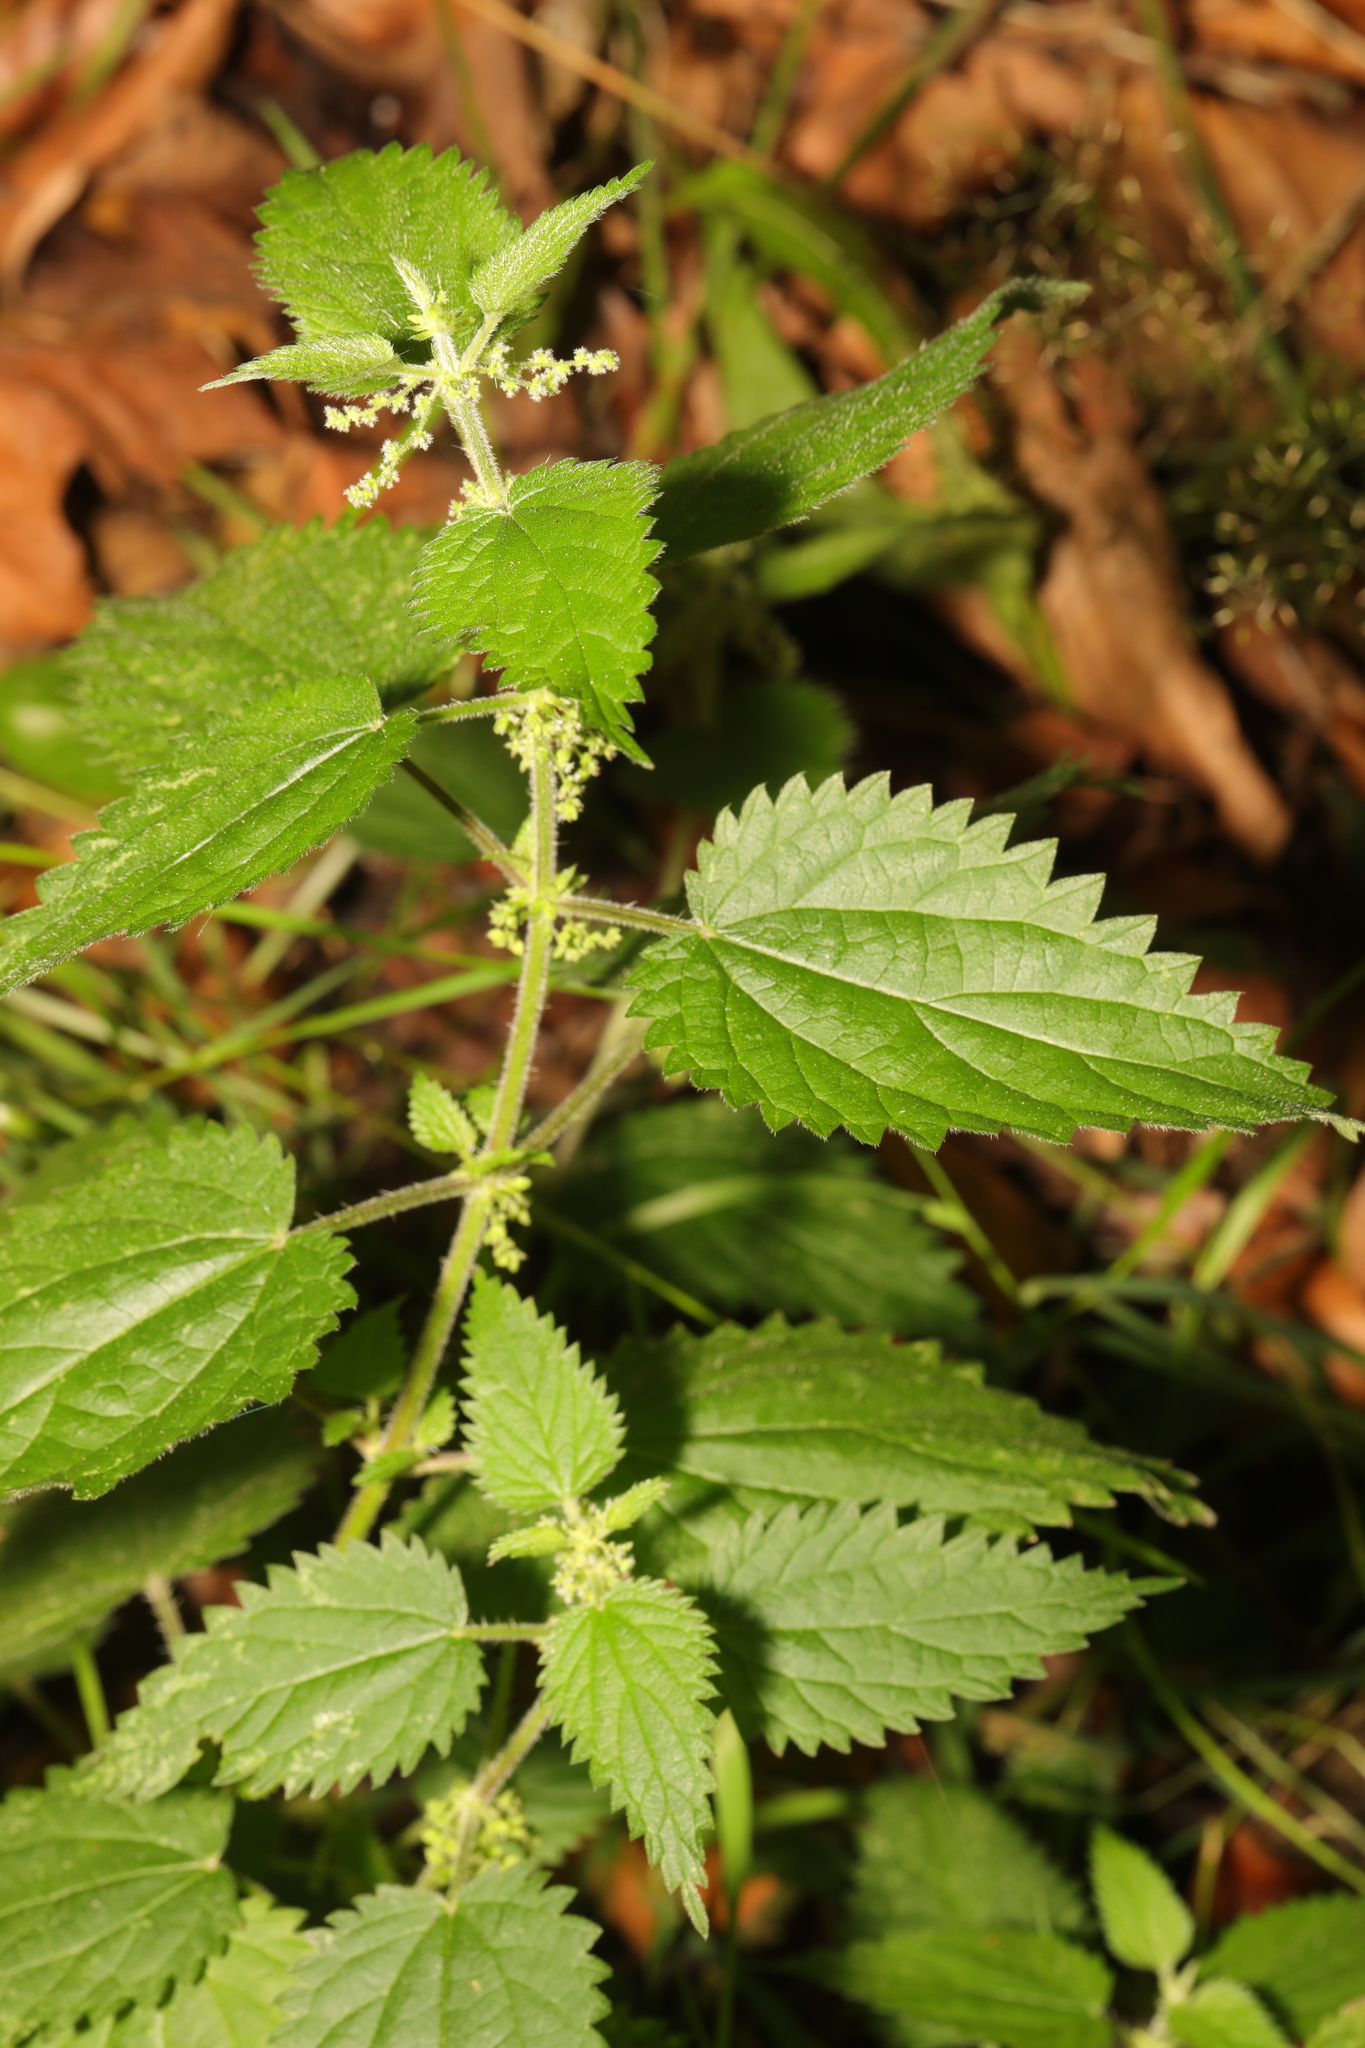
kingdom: Plantae
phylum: Tracheophyta
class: Magnoliopsida
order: Rosales
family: Urticaceae
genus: Urtica
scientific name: Urtica dioica
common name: Common nettle
